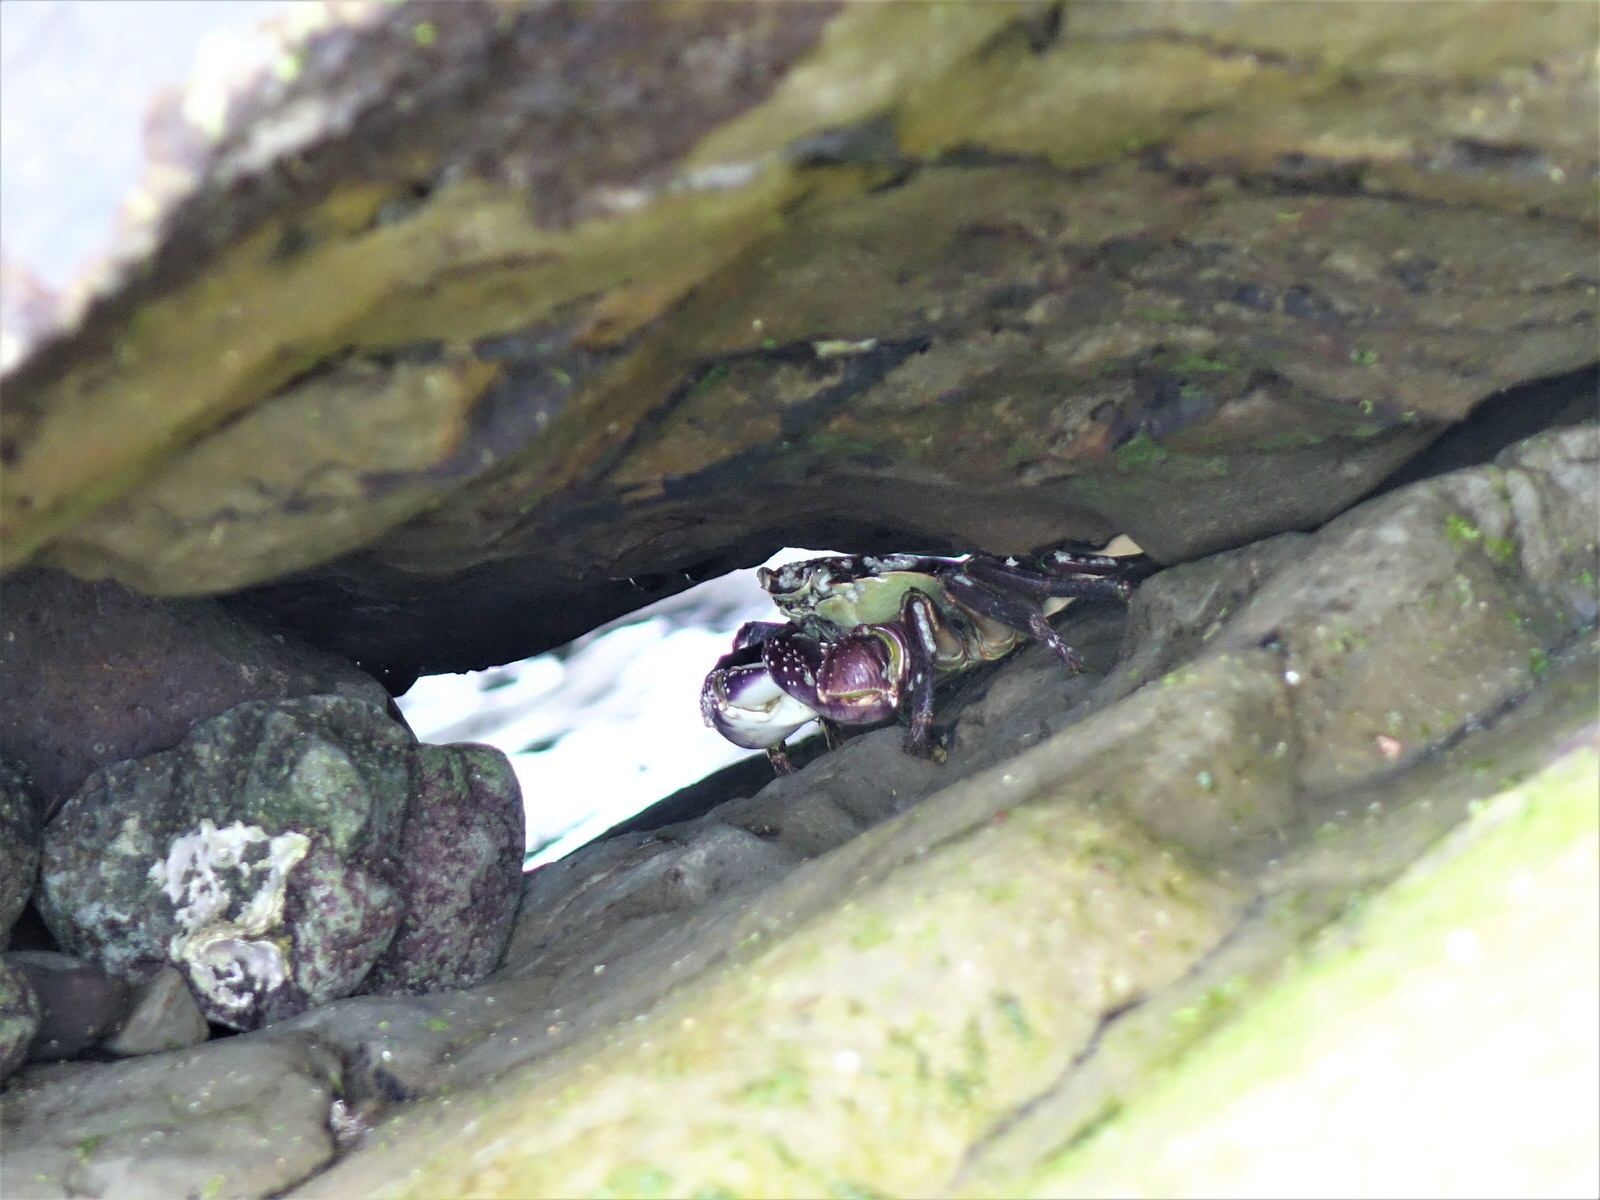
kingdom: Animalia
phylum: Arthropoda
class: Malacostraca
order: Decapoda
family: Grapsidae
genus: Leptograpsus
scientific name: Leptograpsus variegatus
